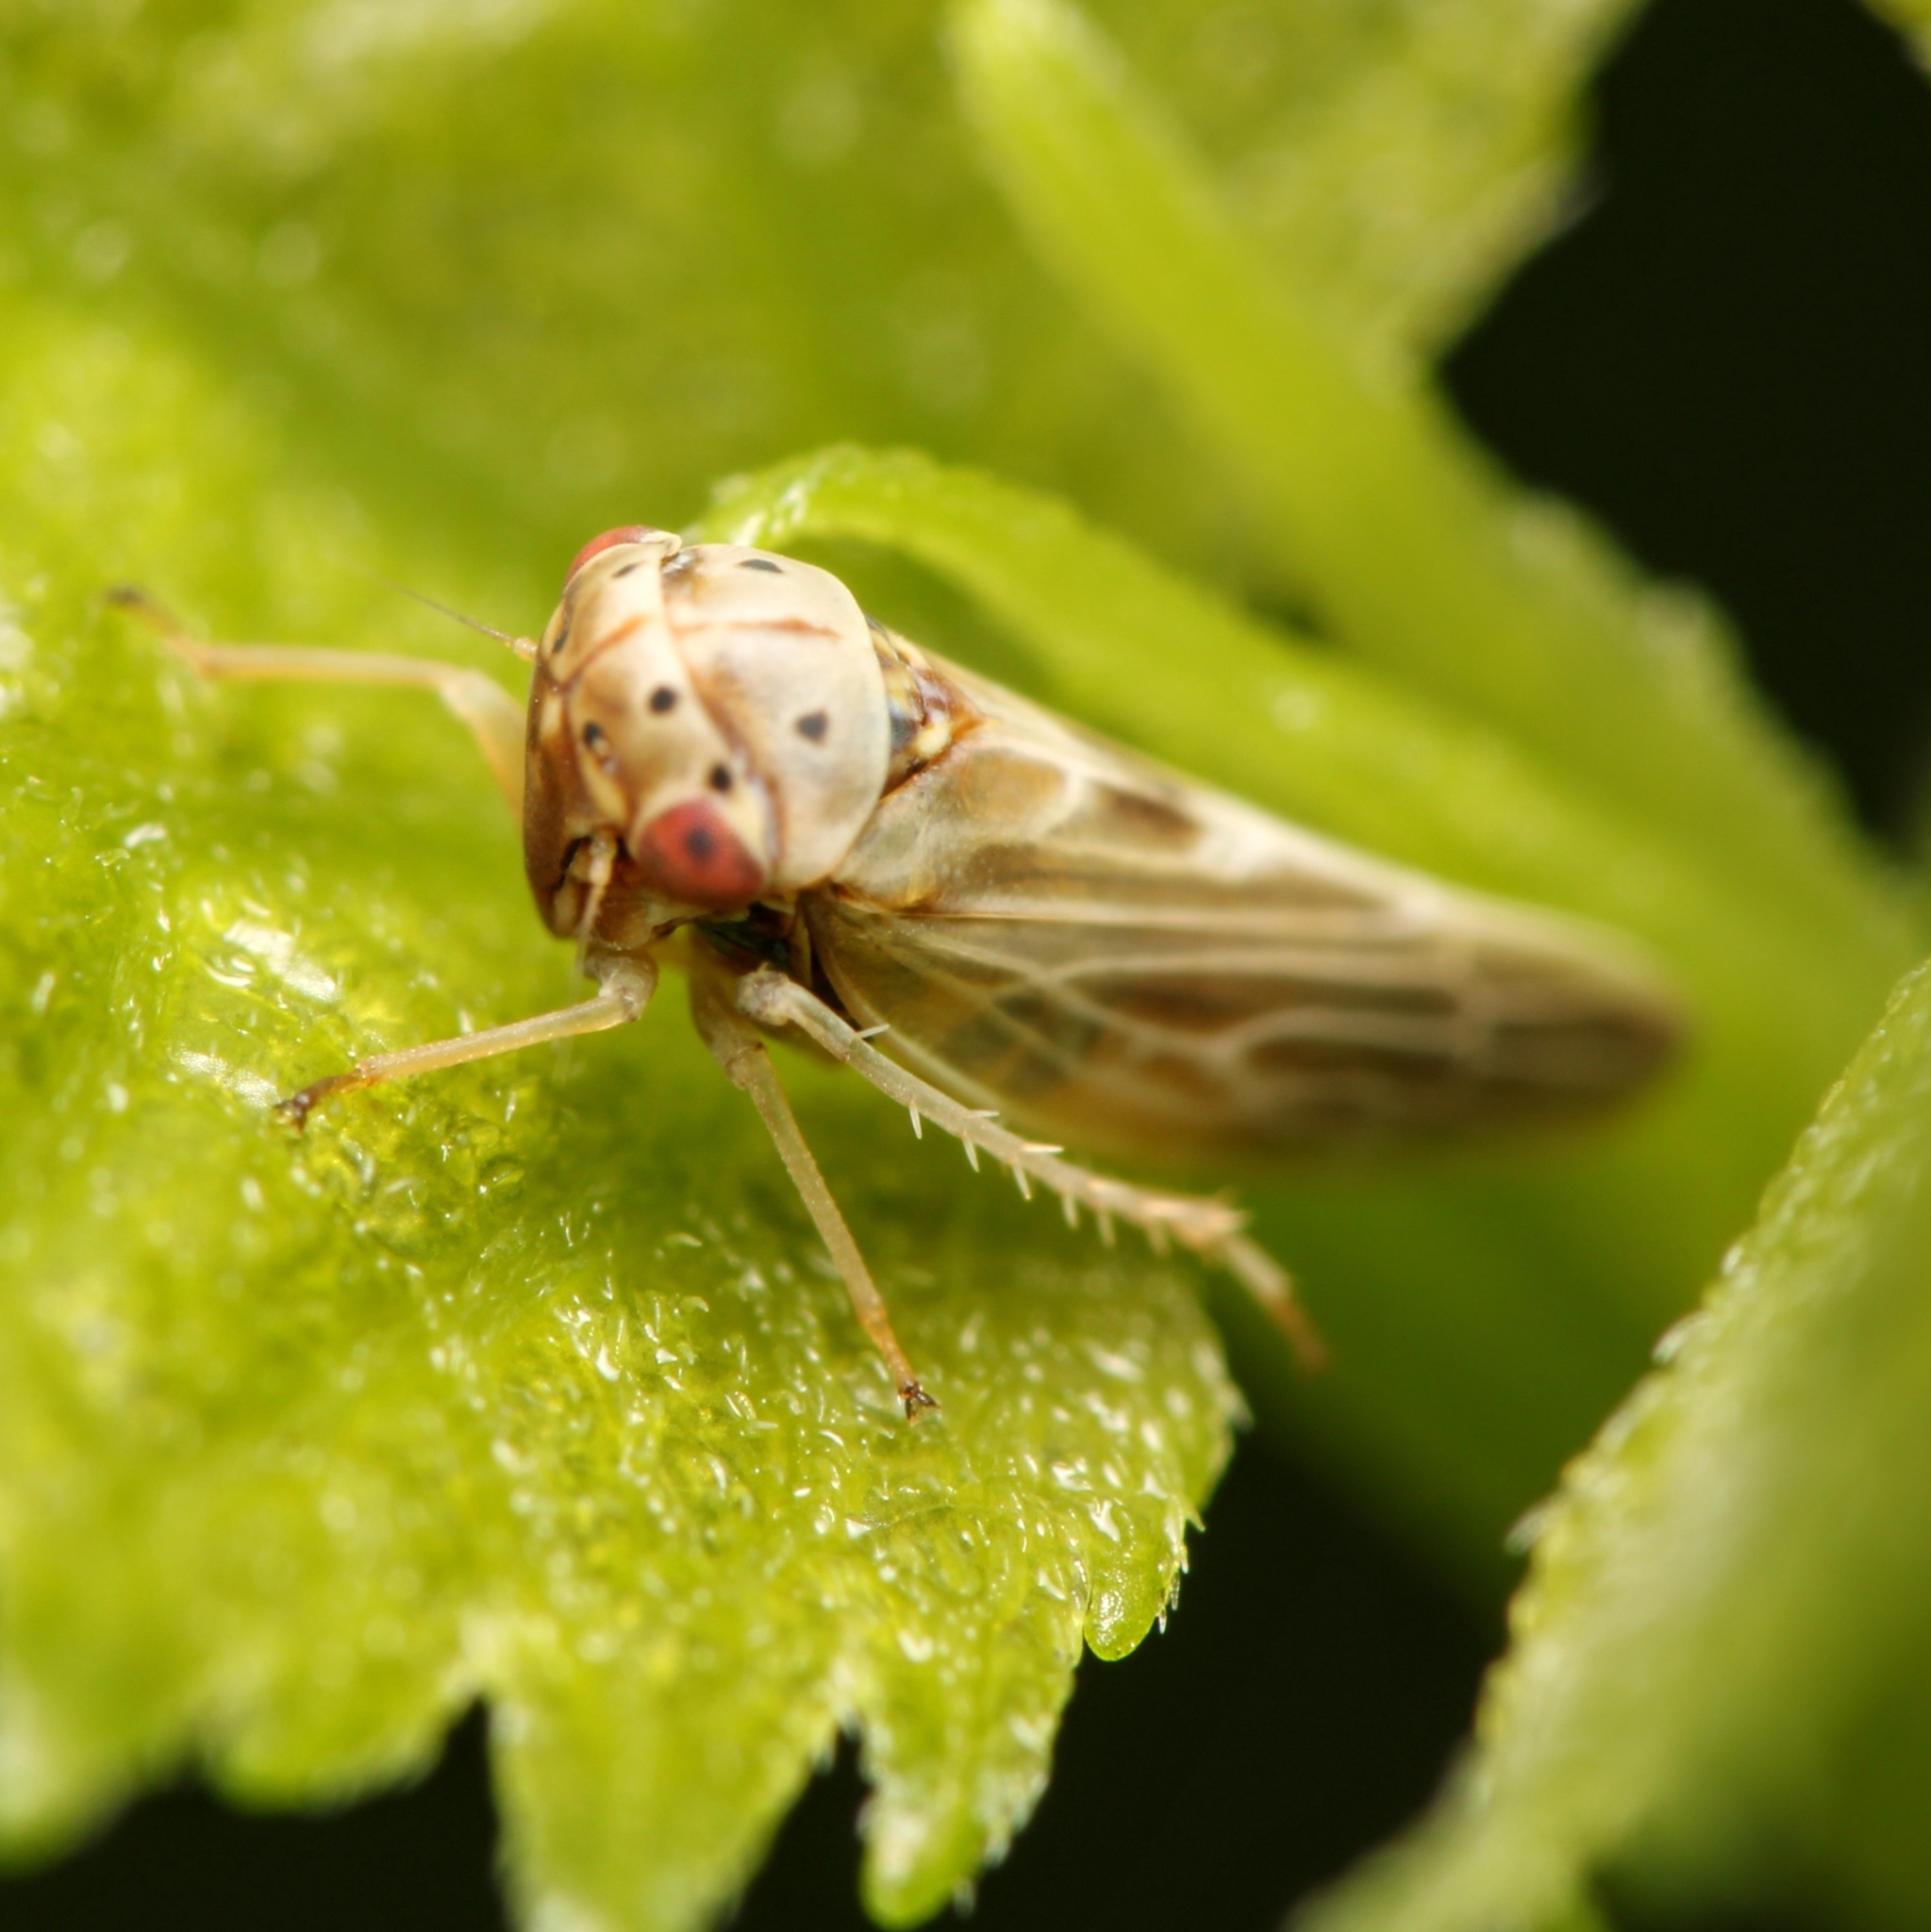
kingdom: Animalia
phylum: Arthropoda
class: Insecta
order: Hemiptera
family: Cicadellidae
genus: Agalliopsis
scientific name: Agalliopsis ancistra
